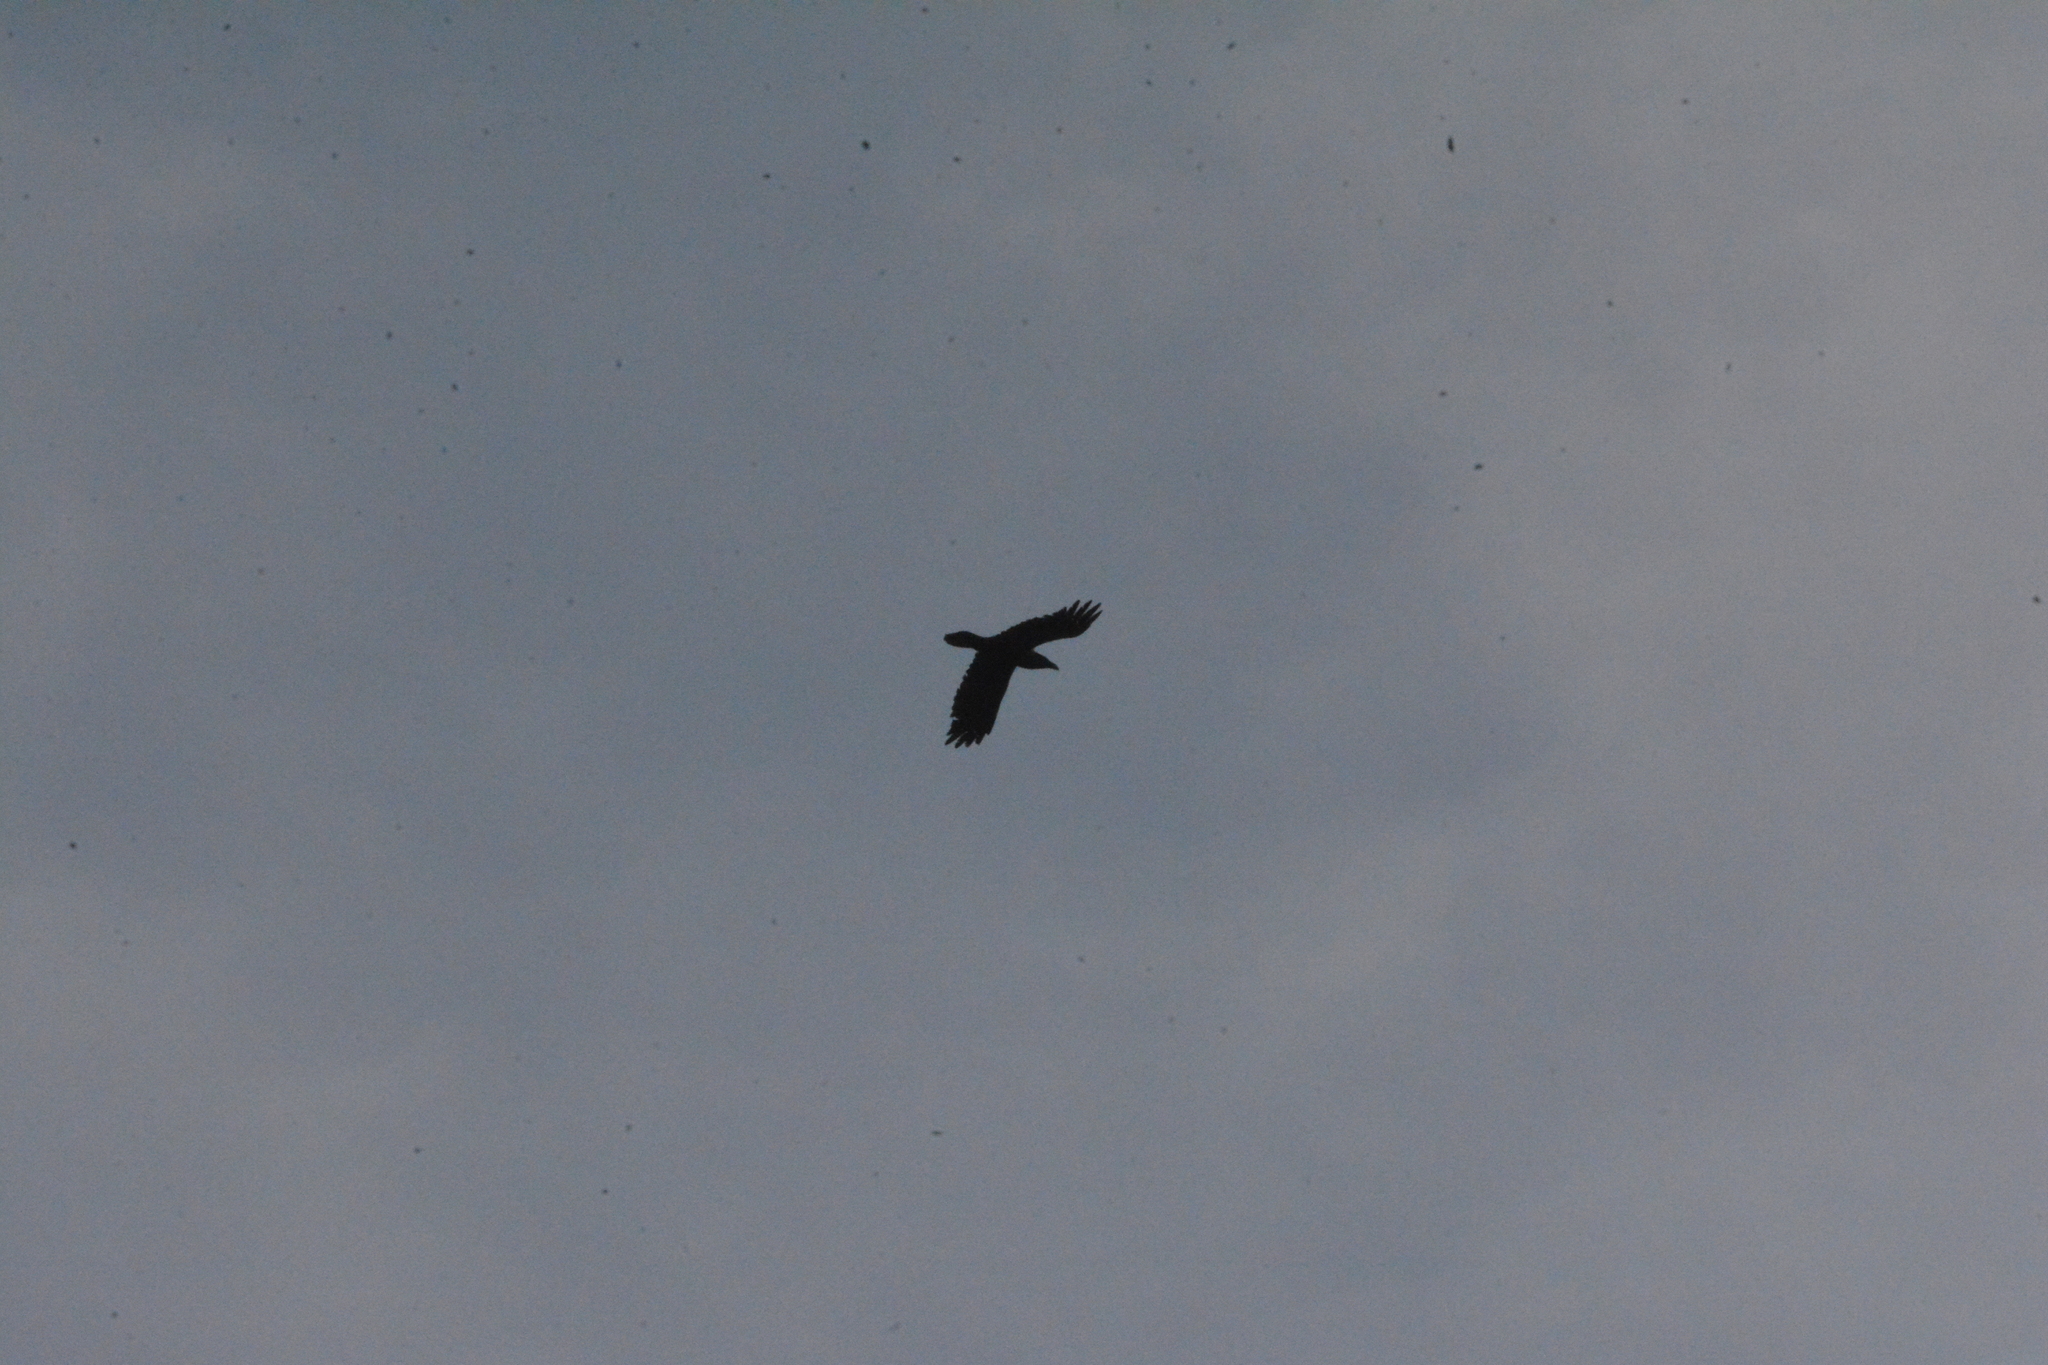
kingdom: Animalia
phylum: Chordata
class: Aves
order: Passeriformes
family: Corvidae
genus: Corvus
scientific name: Corvus corax
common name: Common raven
